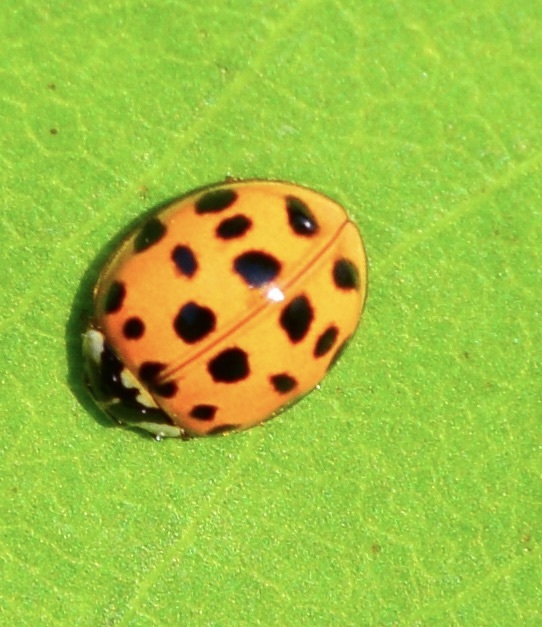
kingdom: Animalia
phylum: Arthropoda
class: Insecta
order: Coleoptera
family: Coccinellidae
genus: Harmonia
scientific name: Harmonia axyridis
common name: Harlequin ladybird
